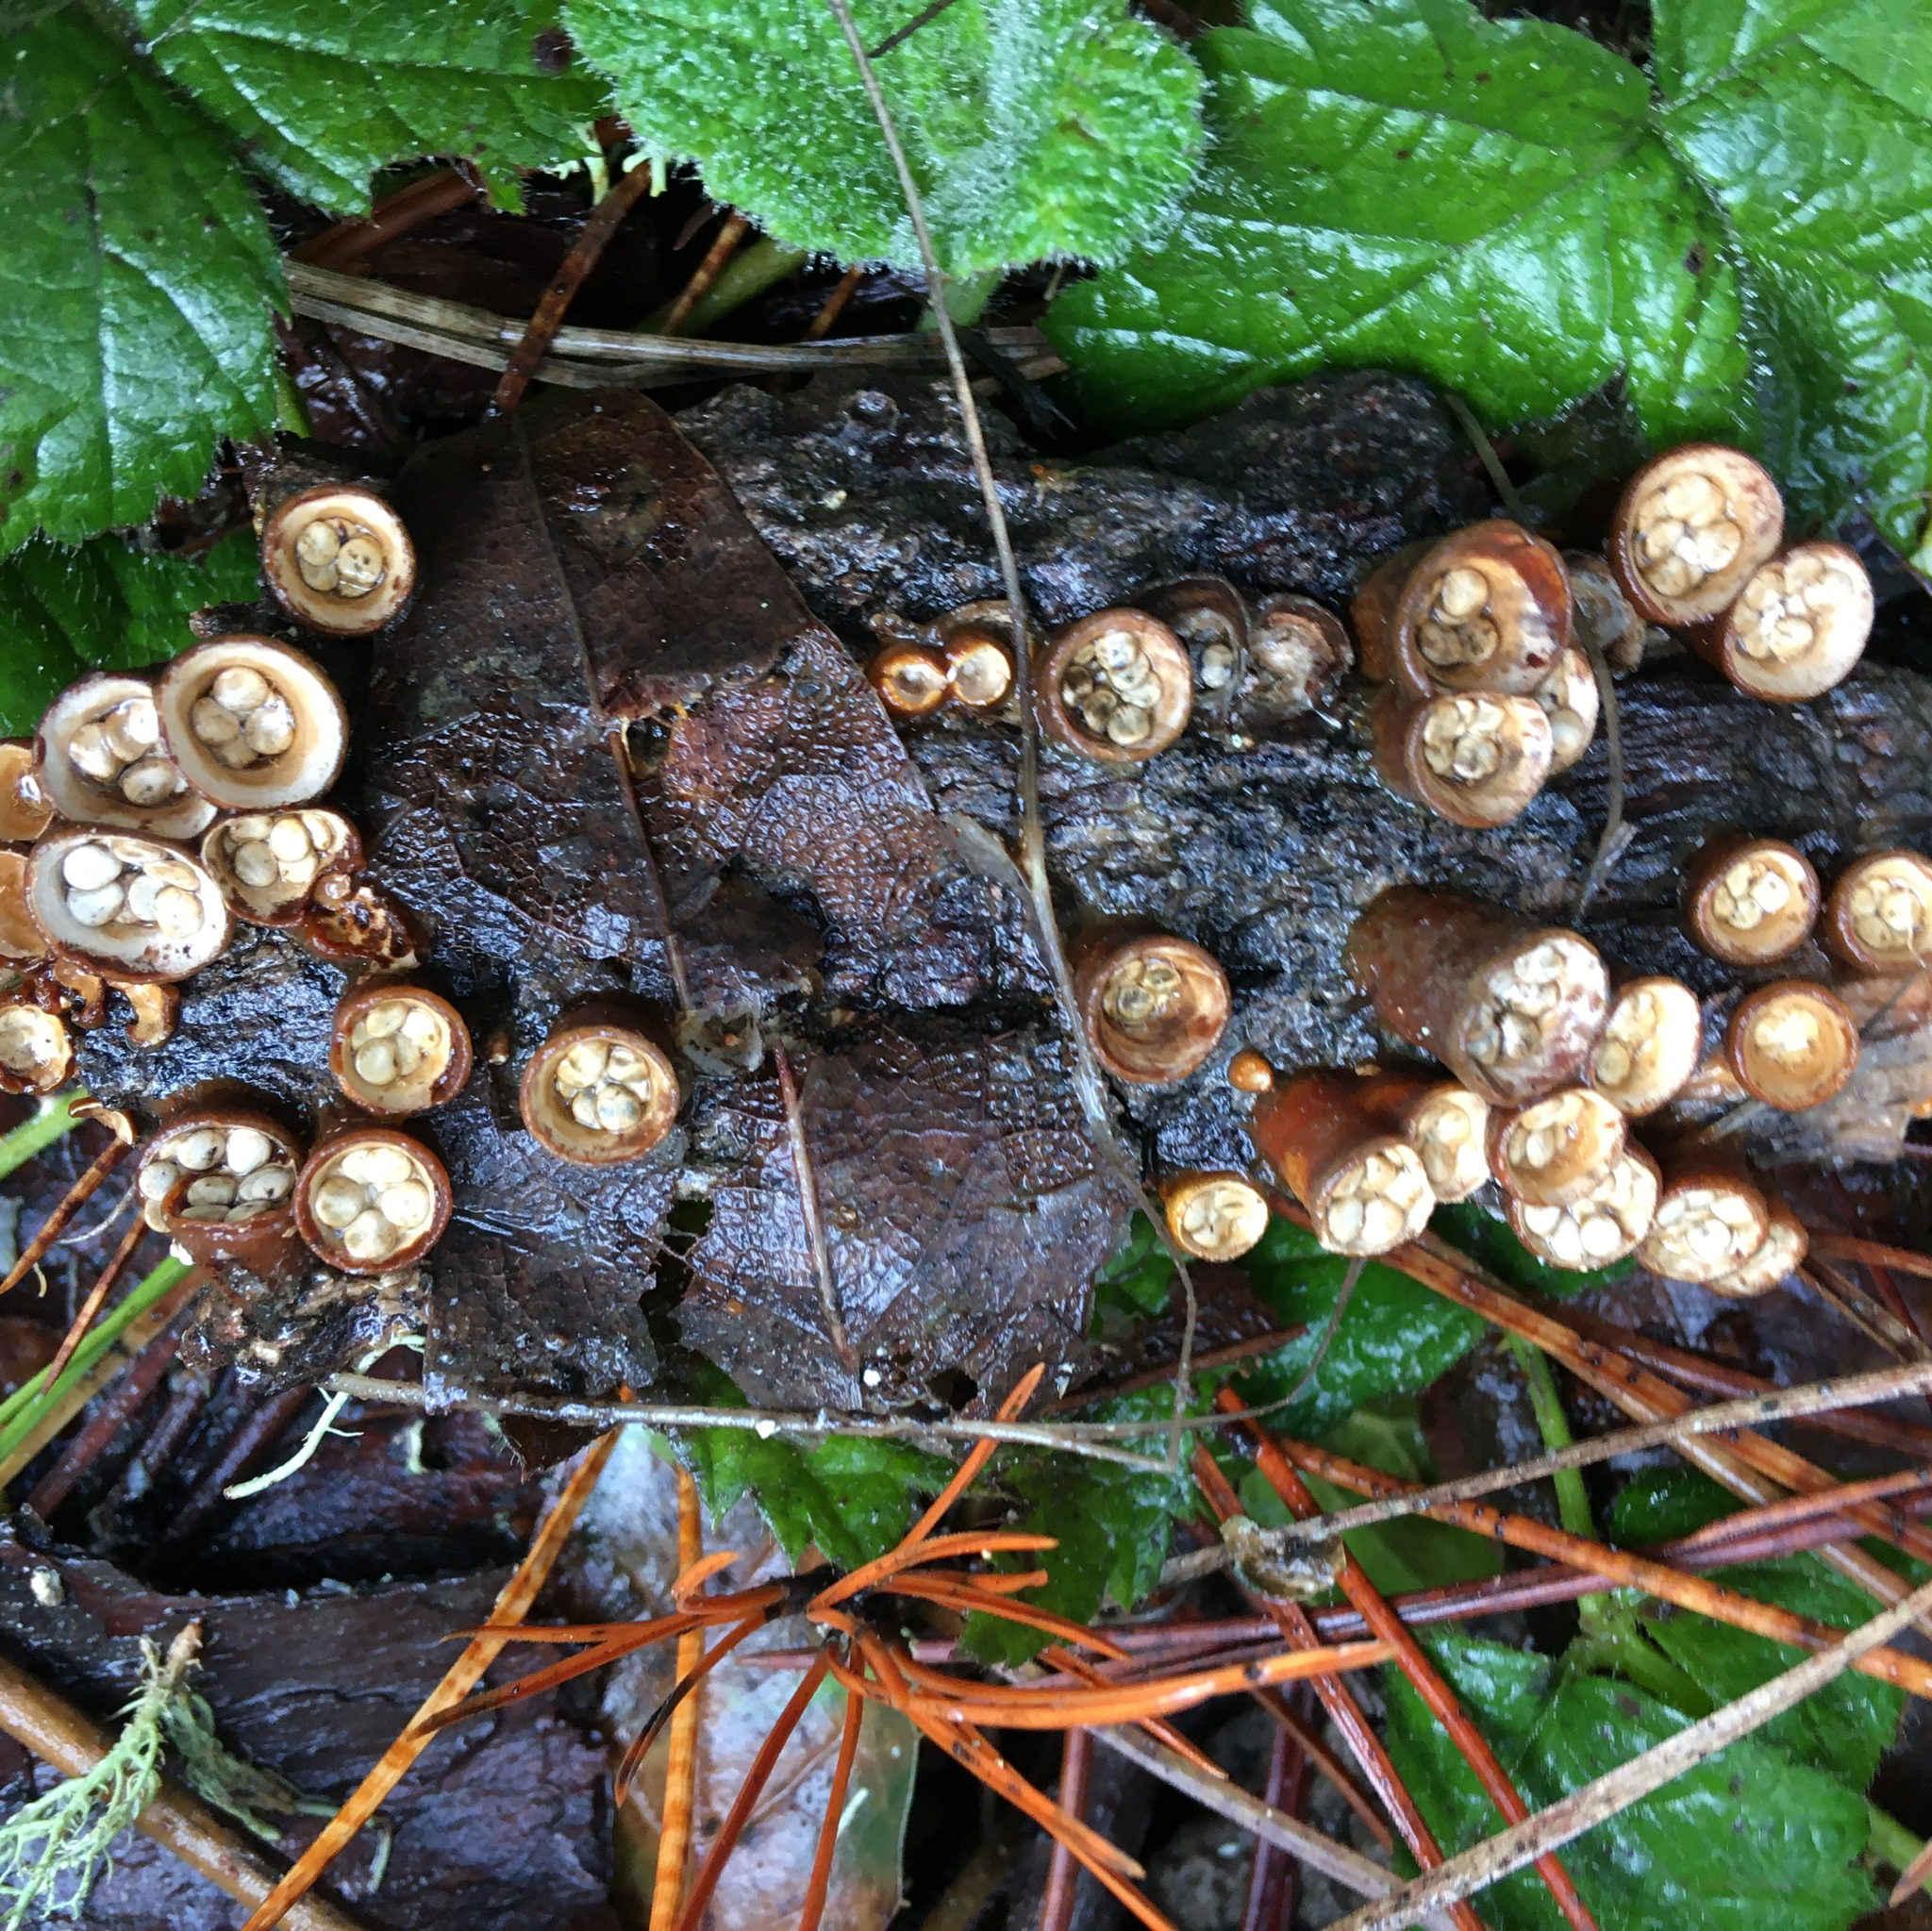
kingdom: Fungi
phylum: Basidiomycota
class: Agaricomycetes
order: Agaricales
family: Nidulariaceae
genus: Crucibulum
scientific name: Crucibulum laeve
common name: Common bird's nest
